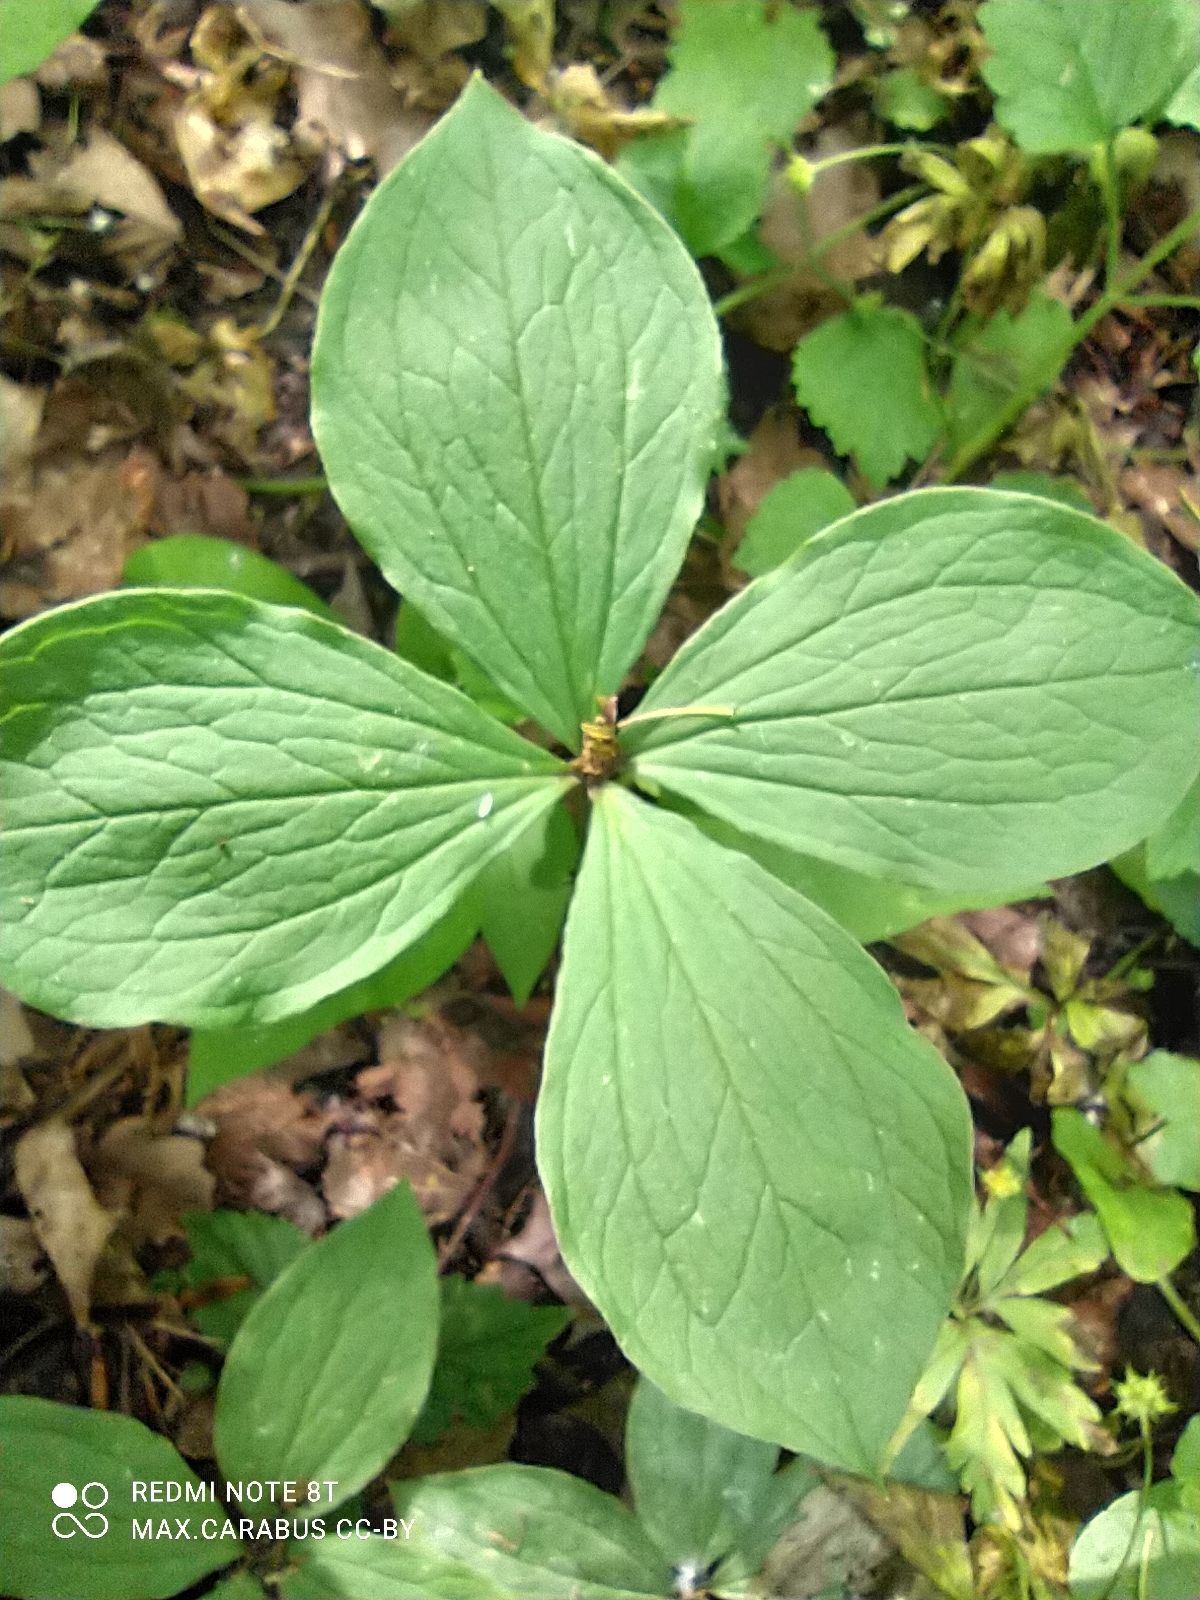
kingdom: Plantae
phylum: Tracheophyta
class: Liliopsida
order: Liliales
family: Melanthiaceae
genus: Paris
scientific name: Paris quadrifolia
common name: Herb-paris
